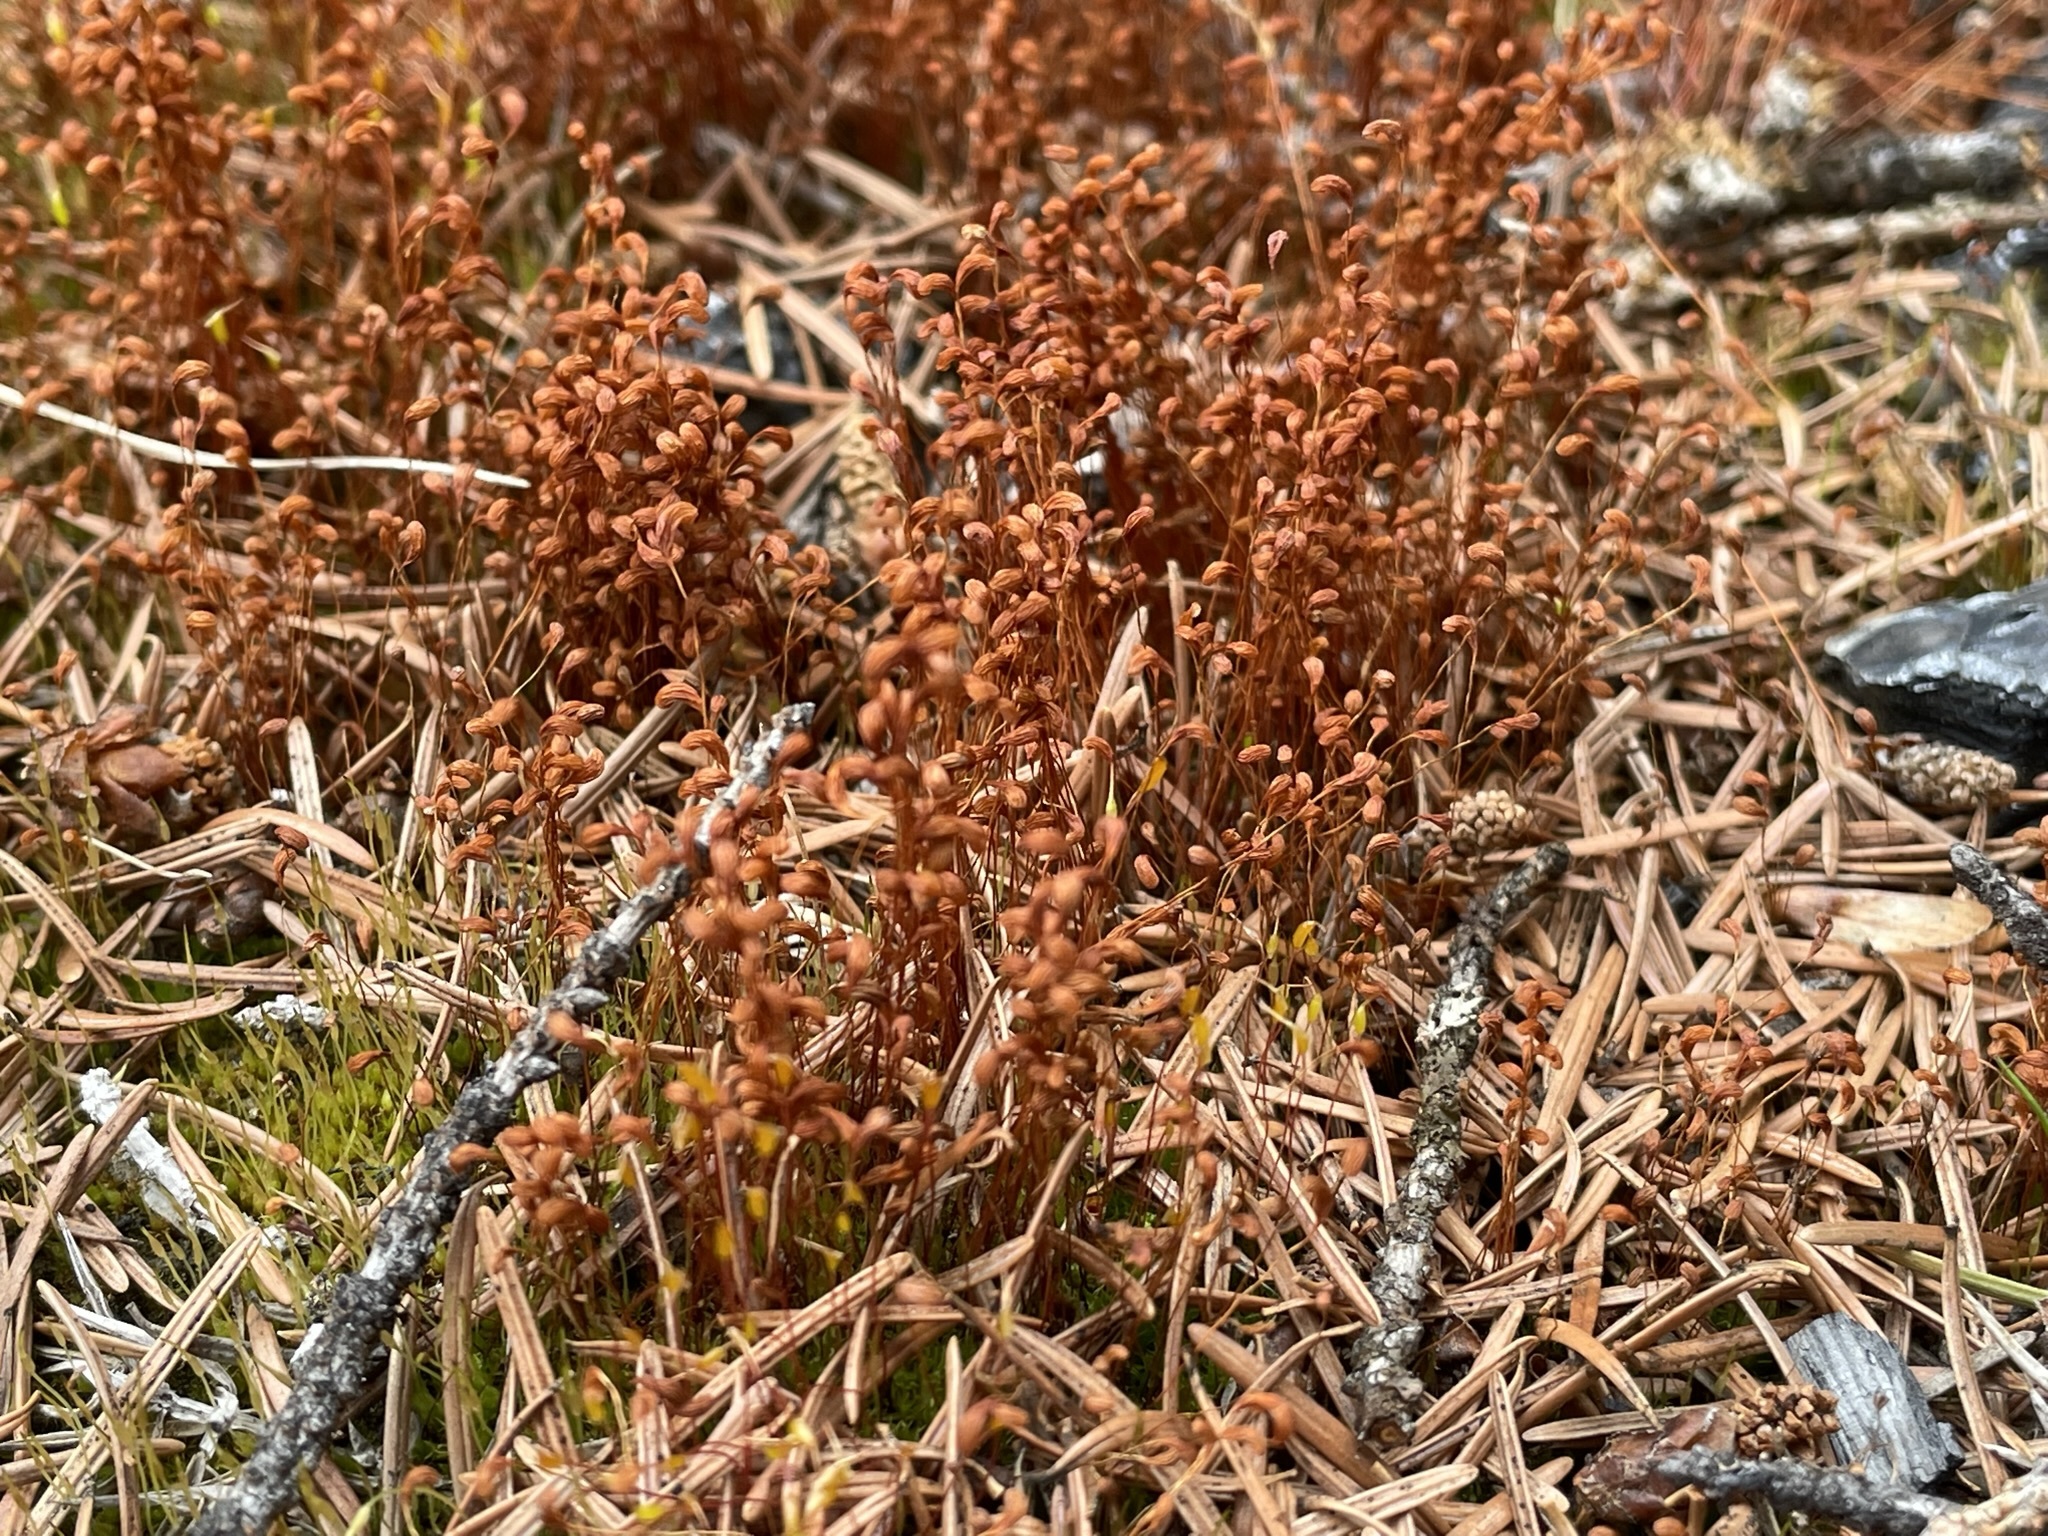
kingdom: Plantae
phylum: Bryophyta
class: Bryopsida
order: Funariales
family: Funariaceae
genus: Funaria
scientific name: Funaria hygrometrica
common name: Common cord moss
